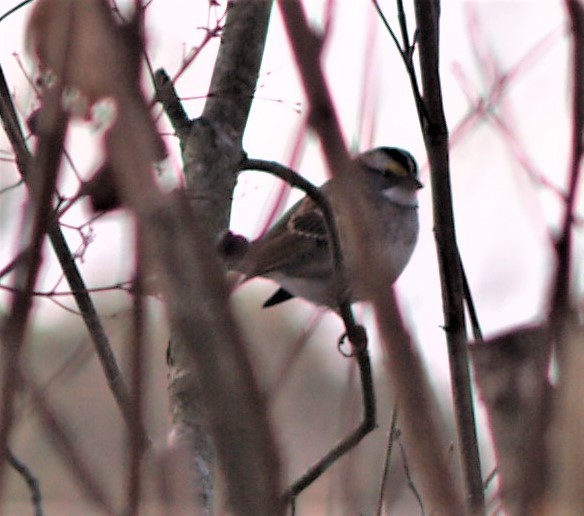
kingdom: Animalia
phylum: Chordata
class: Aves
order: Passeriformes
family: Passerellidae
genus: Zonotrichia
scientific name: Zonotrichia albicollis
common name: White-throated sparrow
